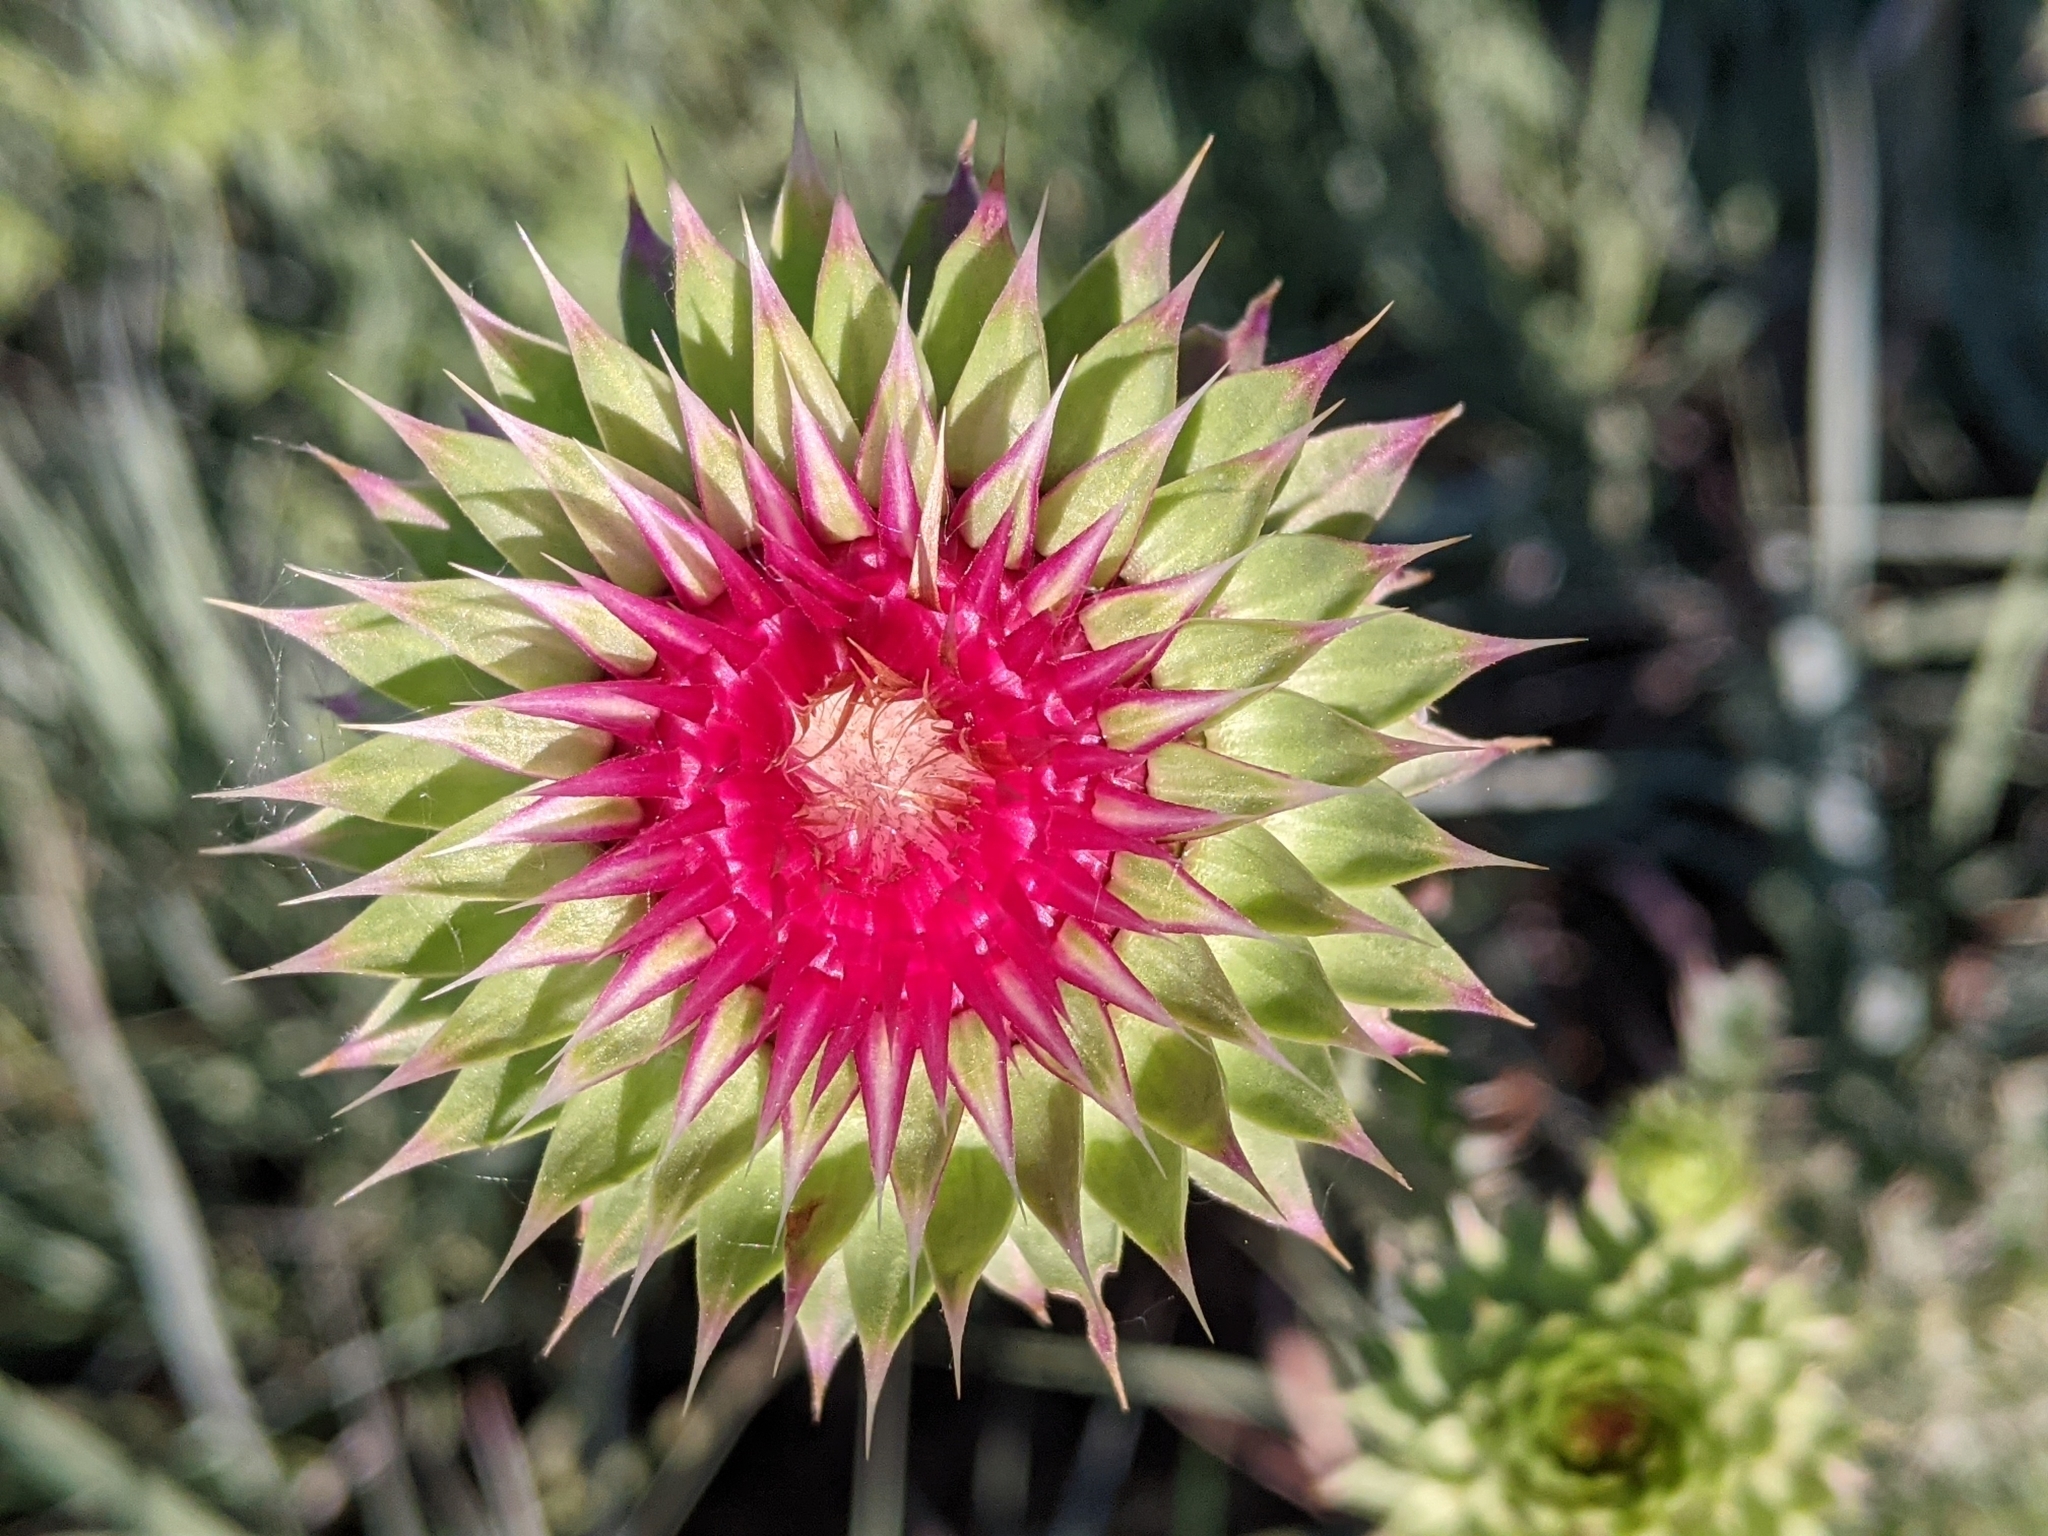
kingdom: Plantae
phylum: Tracheophyta
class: Magnoliopsida
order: Asterales
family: Asteraceae
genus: Carduus
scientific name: Carduus nutans
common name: Musk thistle
